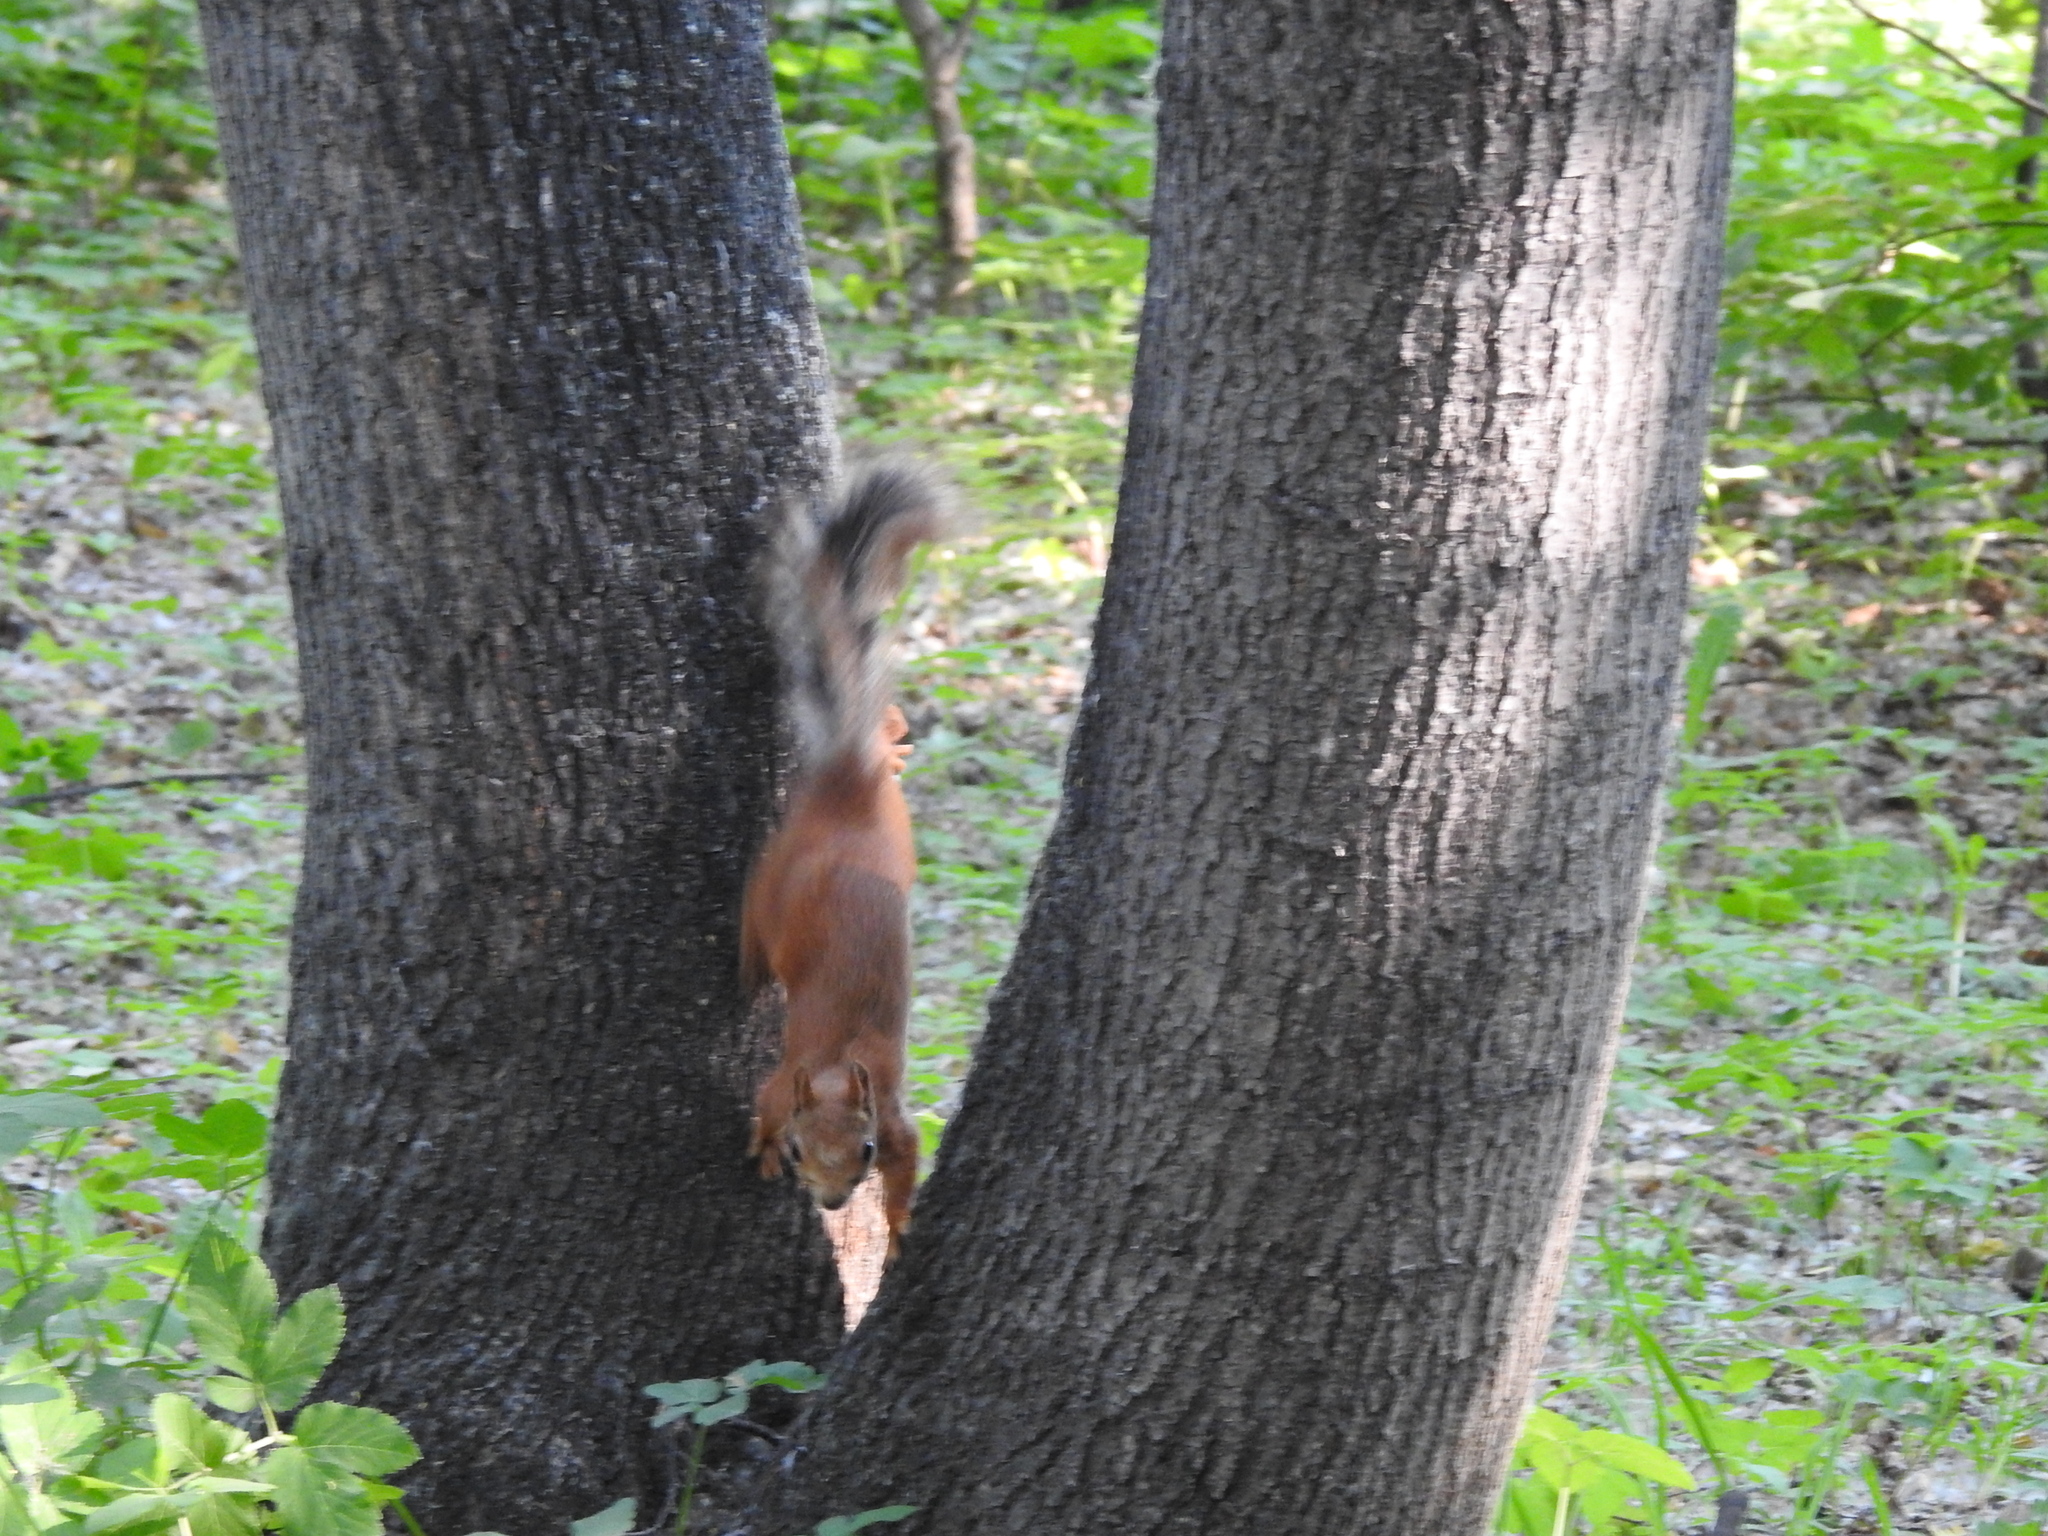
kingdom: Animalia
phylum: Chordata
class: Mammalia
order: Rodentia
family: Sciuridae
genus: Sciurus
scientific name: Sciurus vulgaris
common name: Eurasian red squirrel
